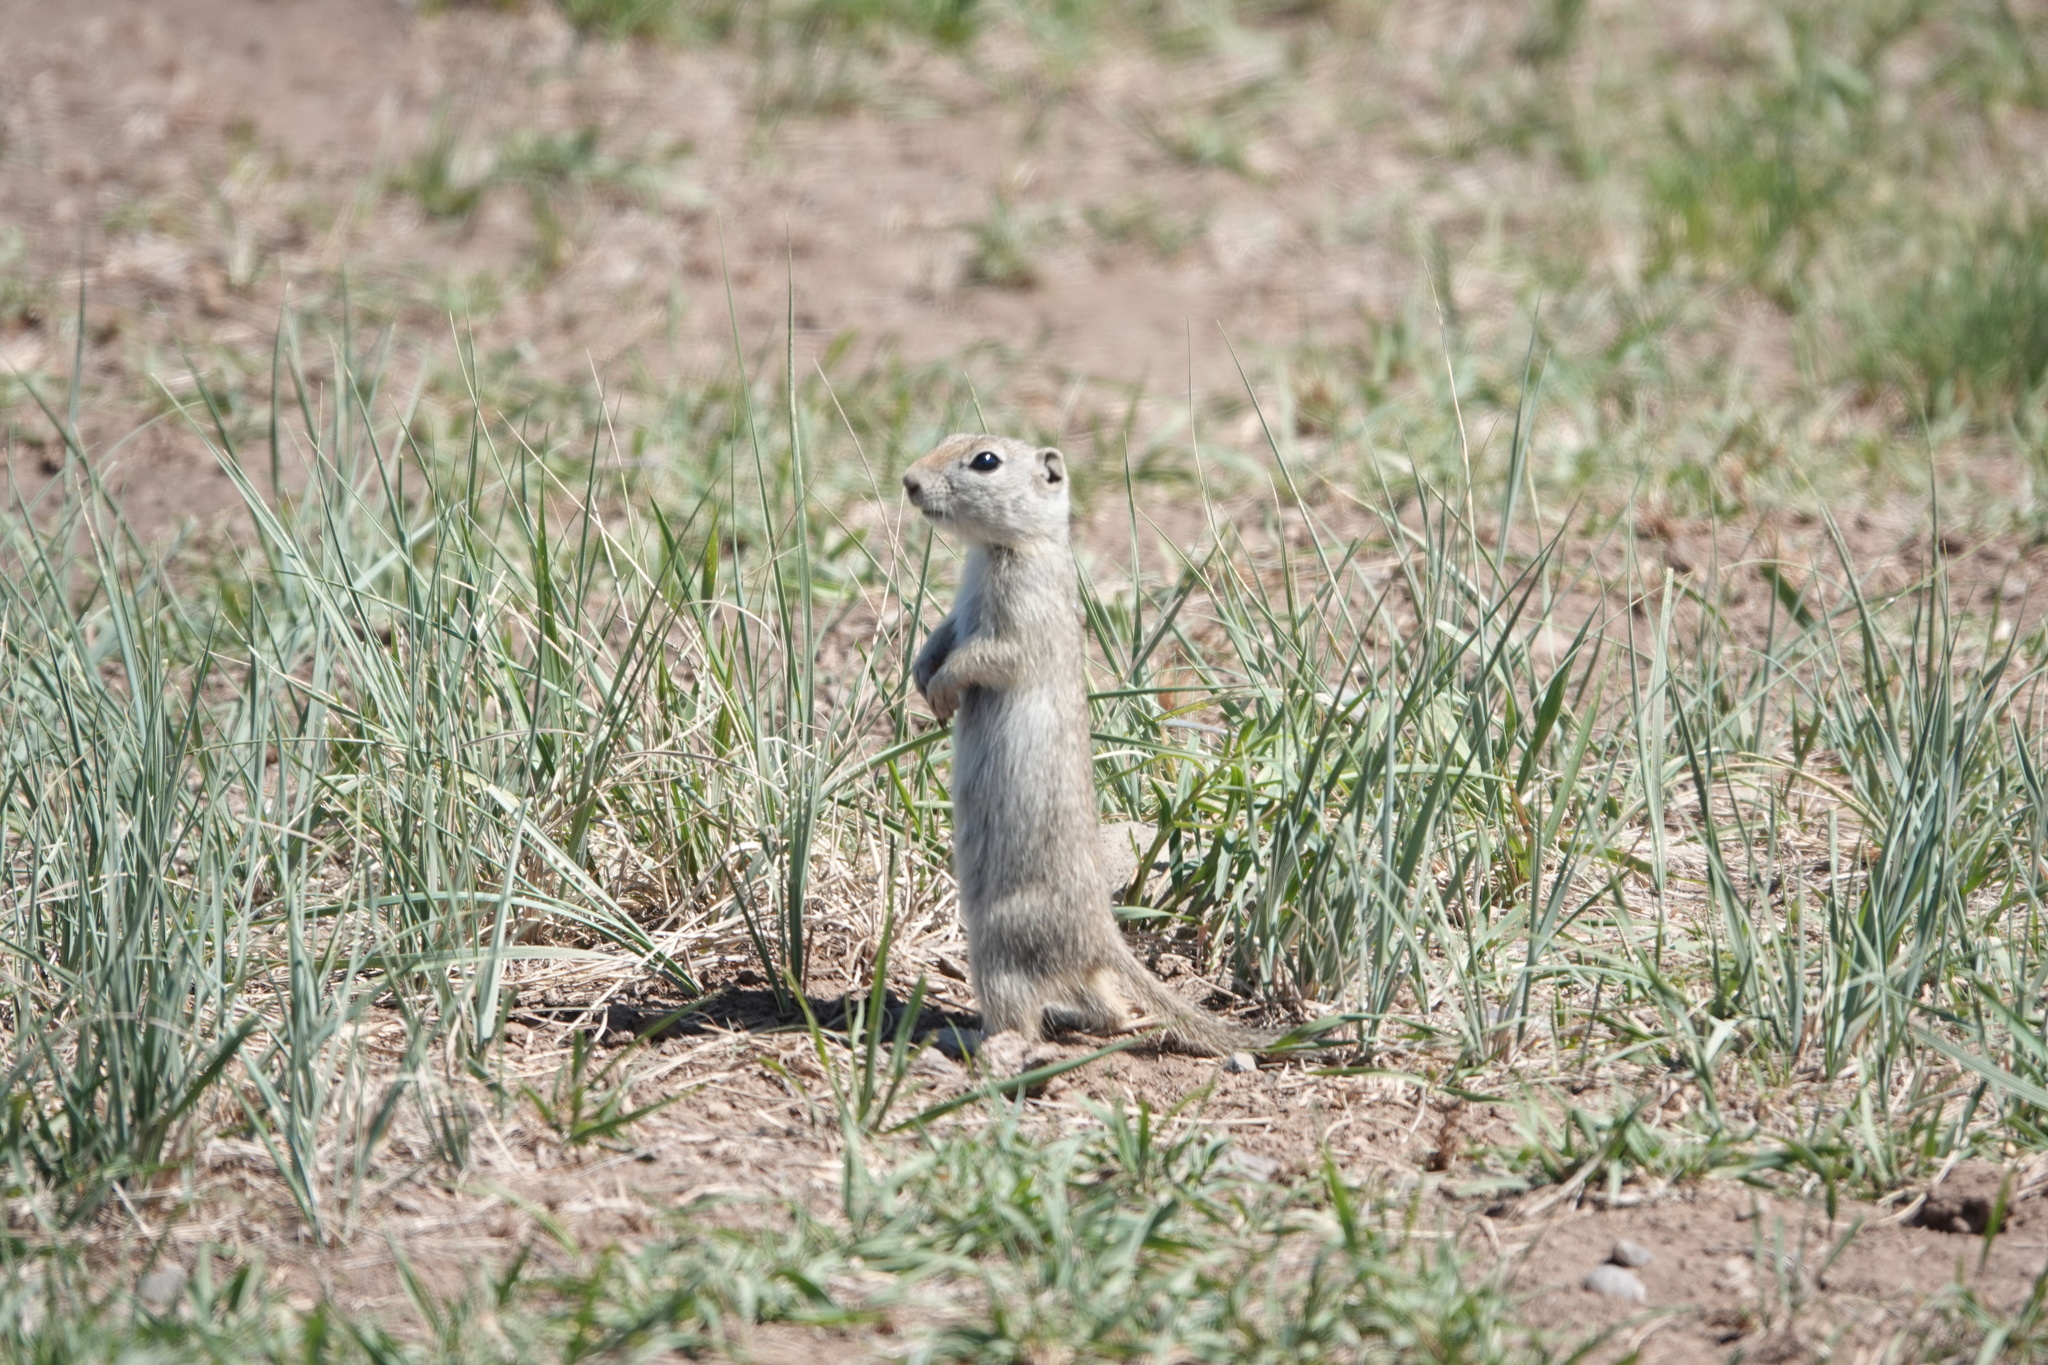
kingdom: Animalia
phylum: Chordata
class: Mammalia
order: Rodentia
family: Sciuridae
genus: Urocitellus
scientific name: Urocitellus elegans
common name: Wyoming ground squirrel
